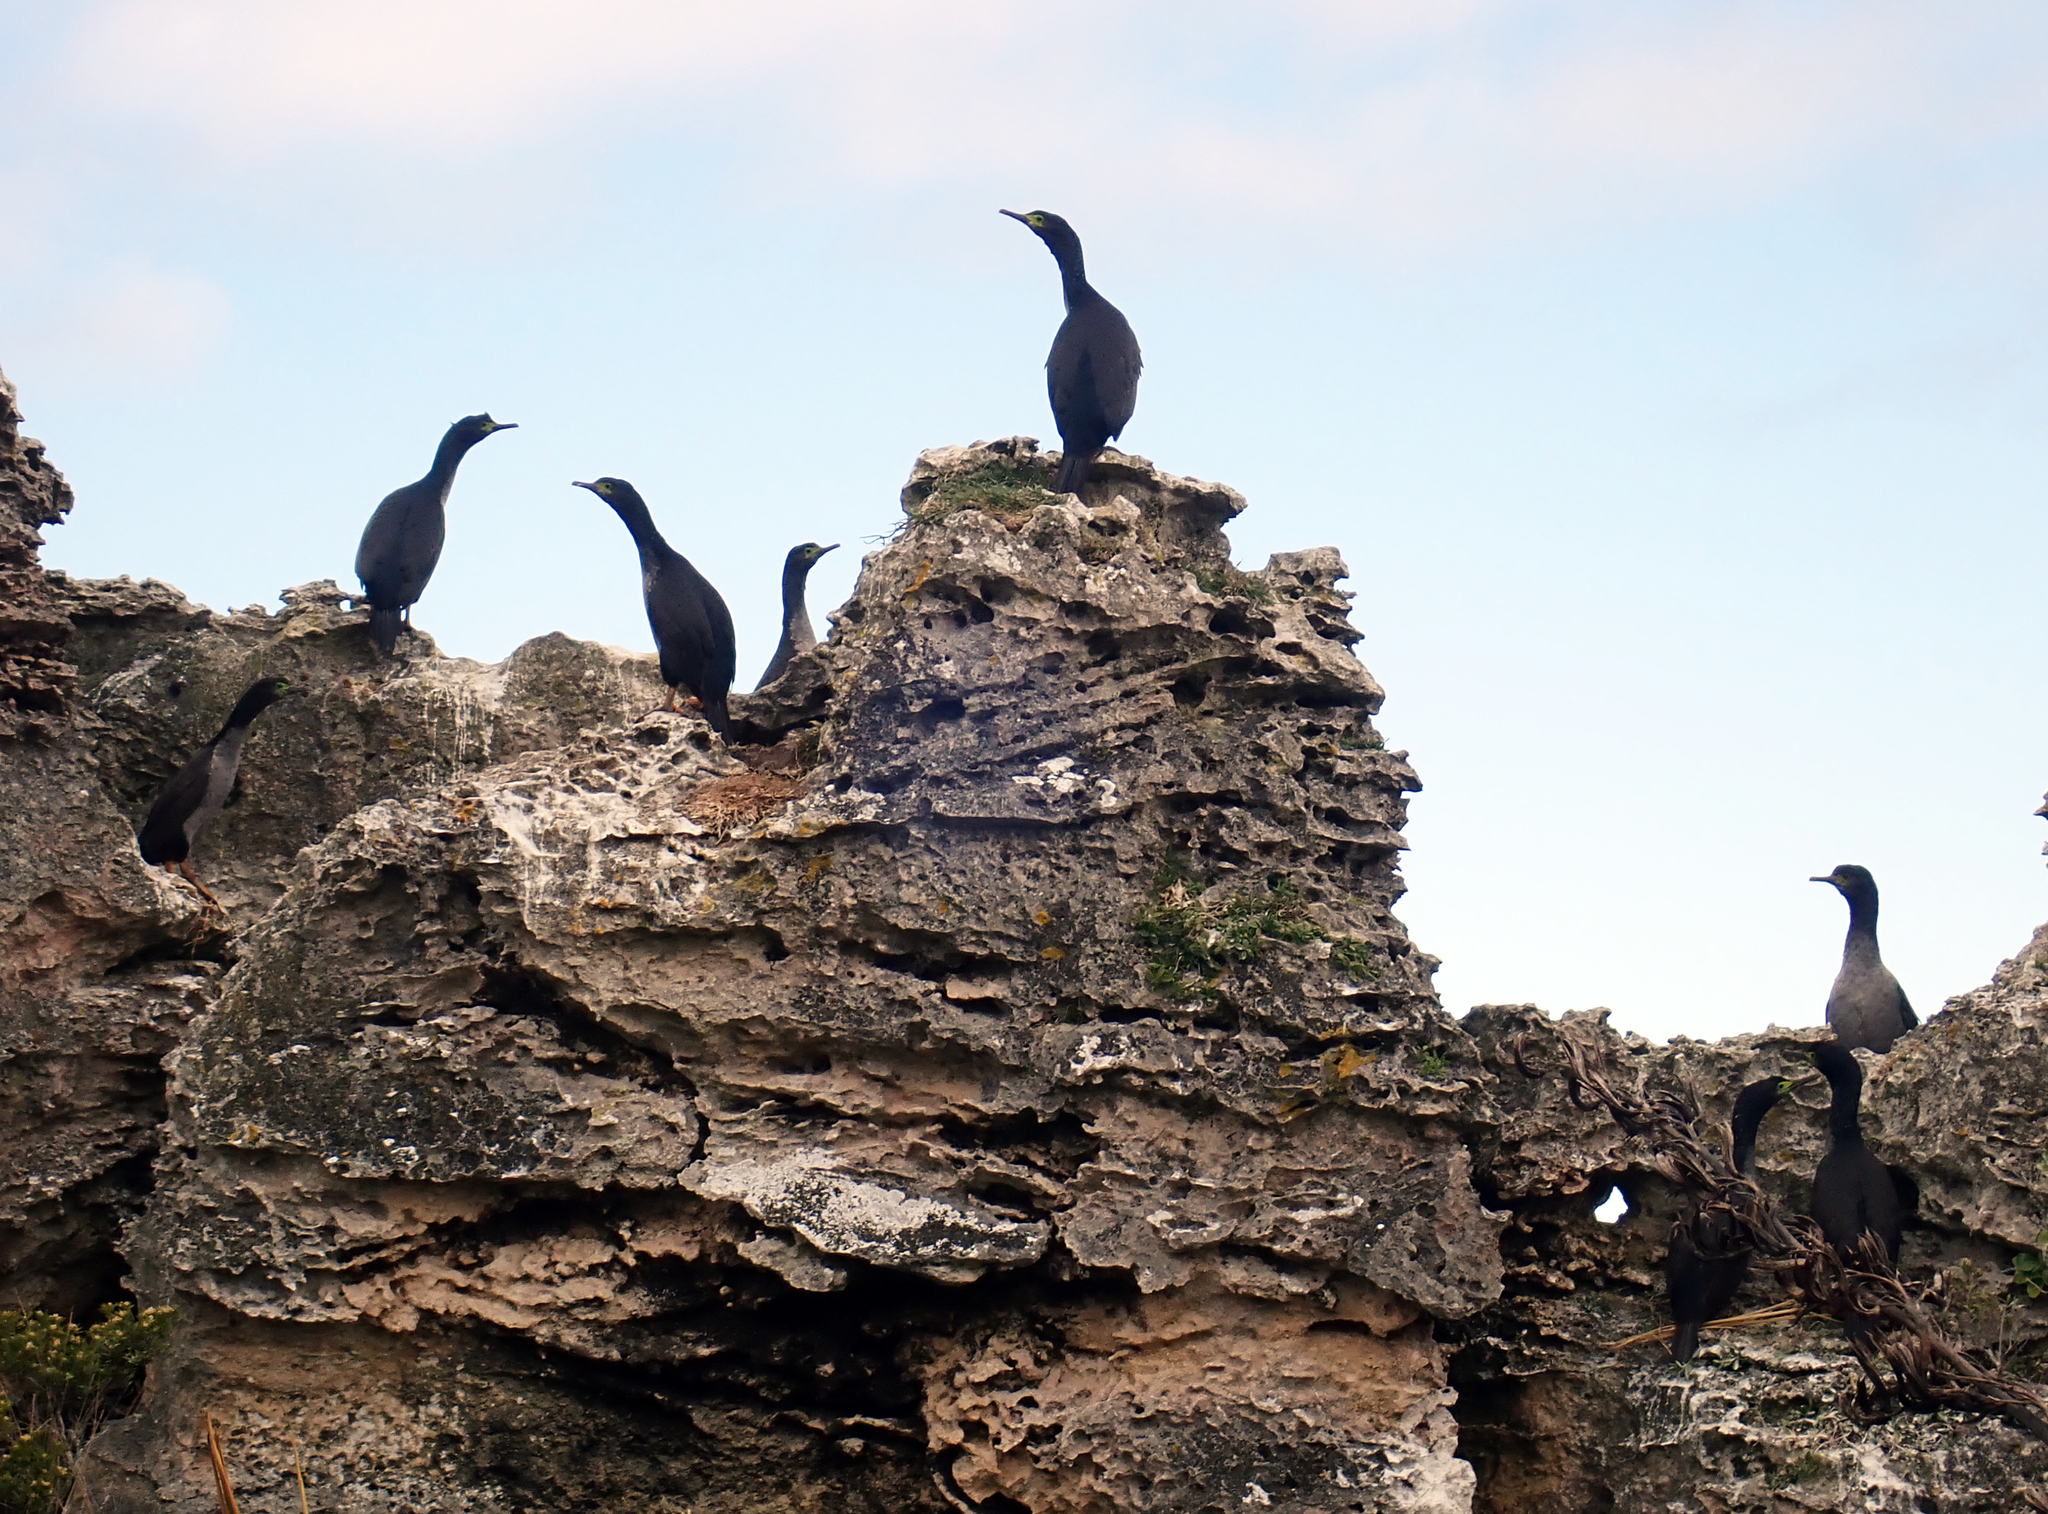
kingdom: Animalia
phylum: Chordata
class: Aves
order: Suliformes
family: Phalacrocoracidae
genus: Phalacrocorax
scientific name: Phalacrocorax featherstoni
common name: Pitt shag
